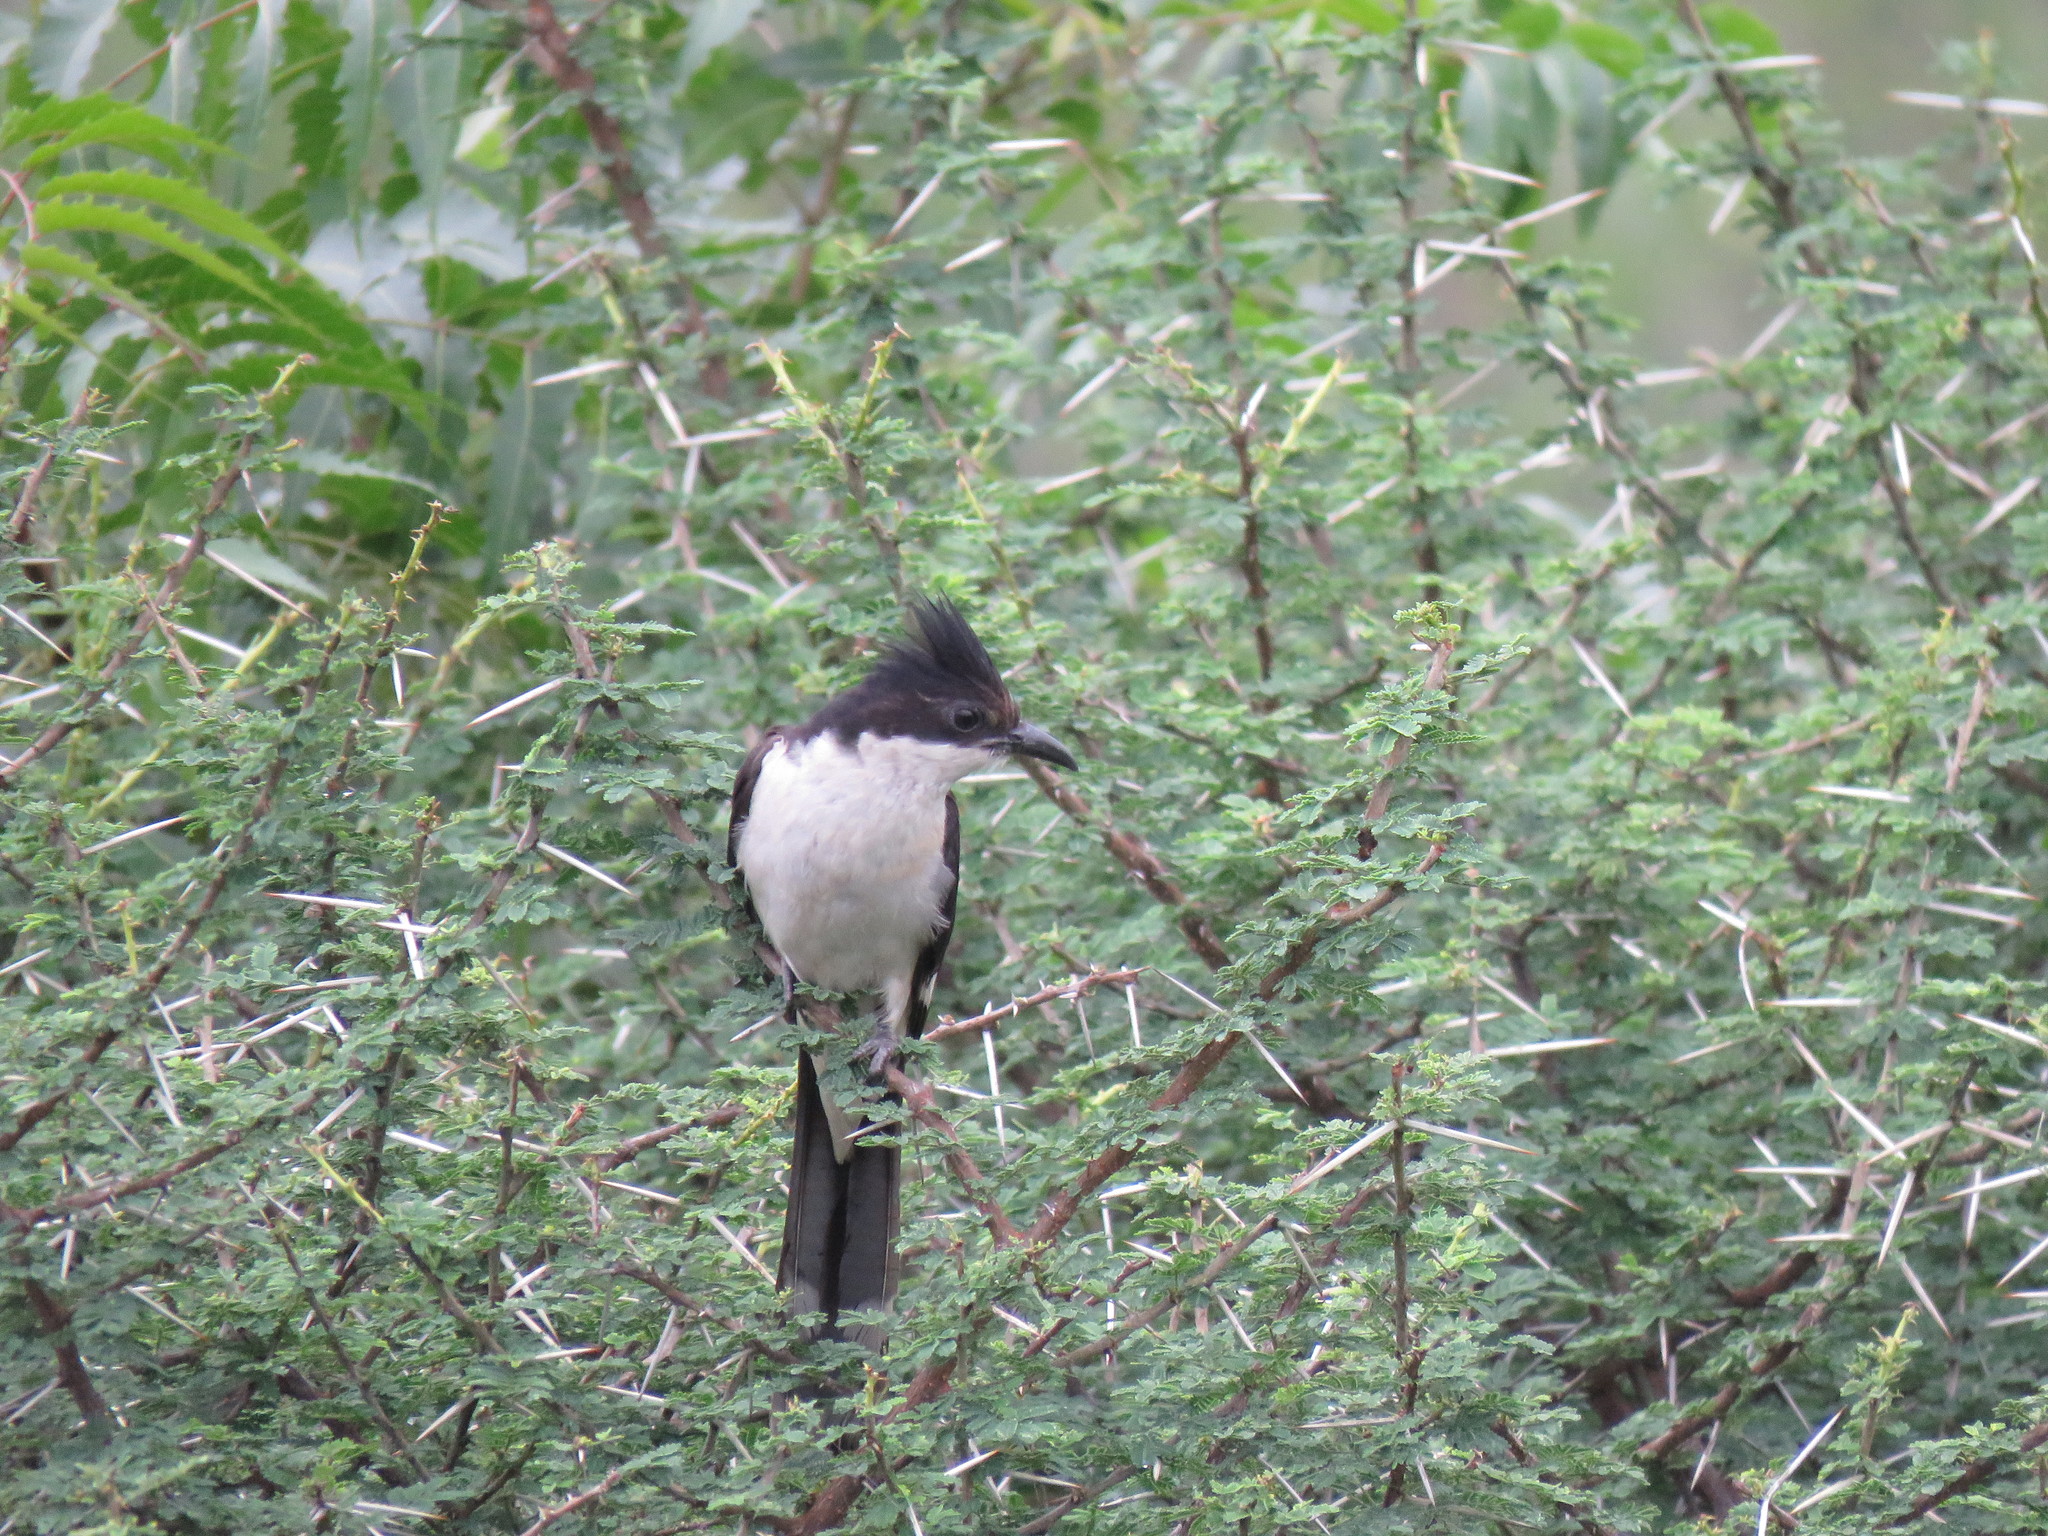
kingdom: Animalia
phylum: Chordata
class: Aves
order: Cuculiformes
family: Cuculidae
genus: Clamator
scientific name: Clamator jacobinus
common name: Jacobin cuckoo
